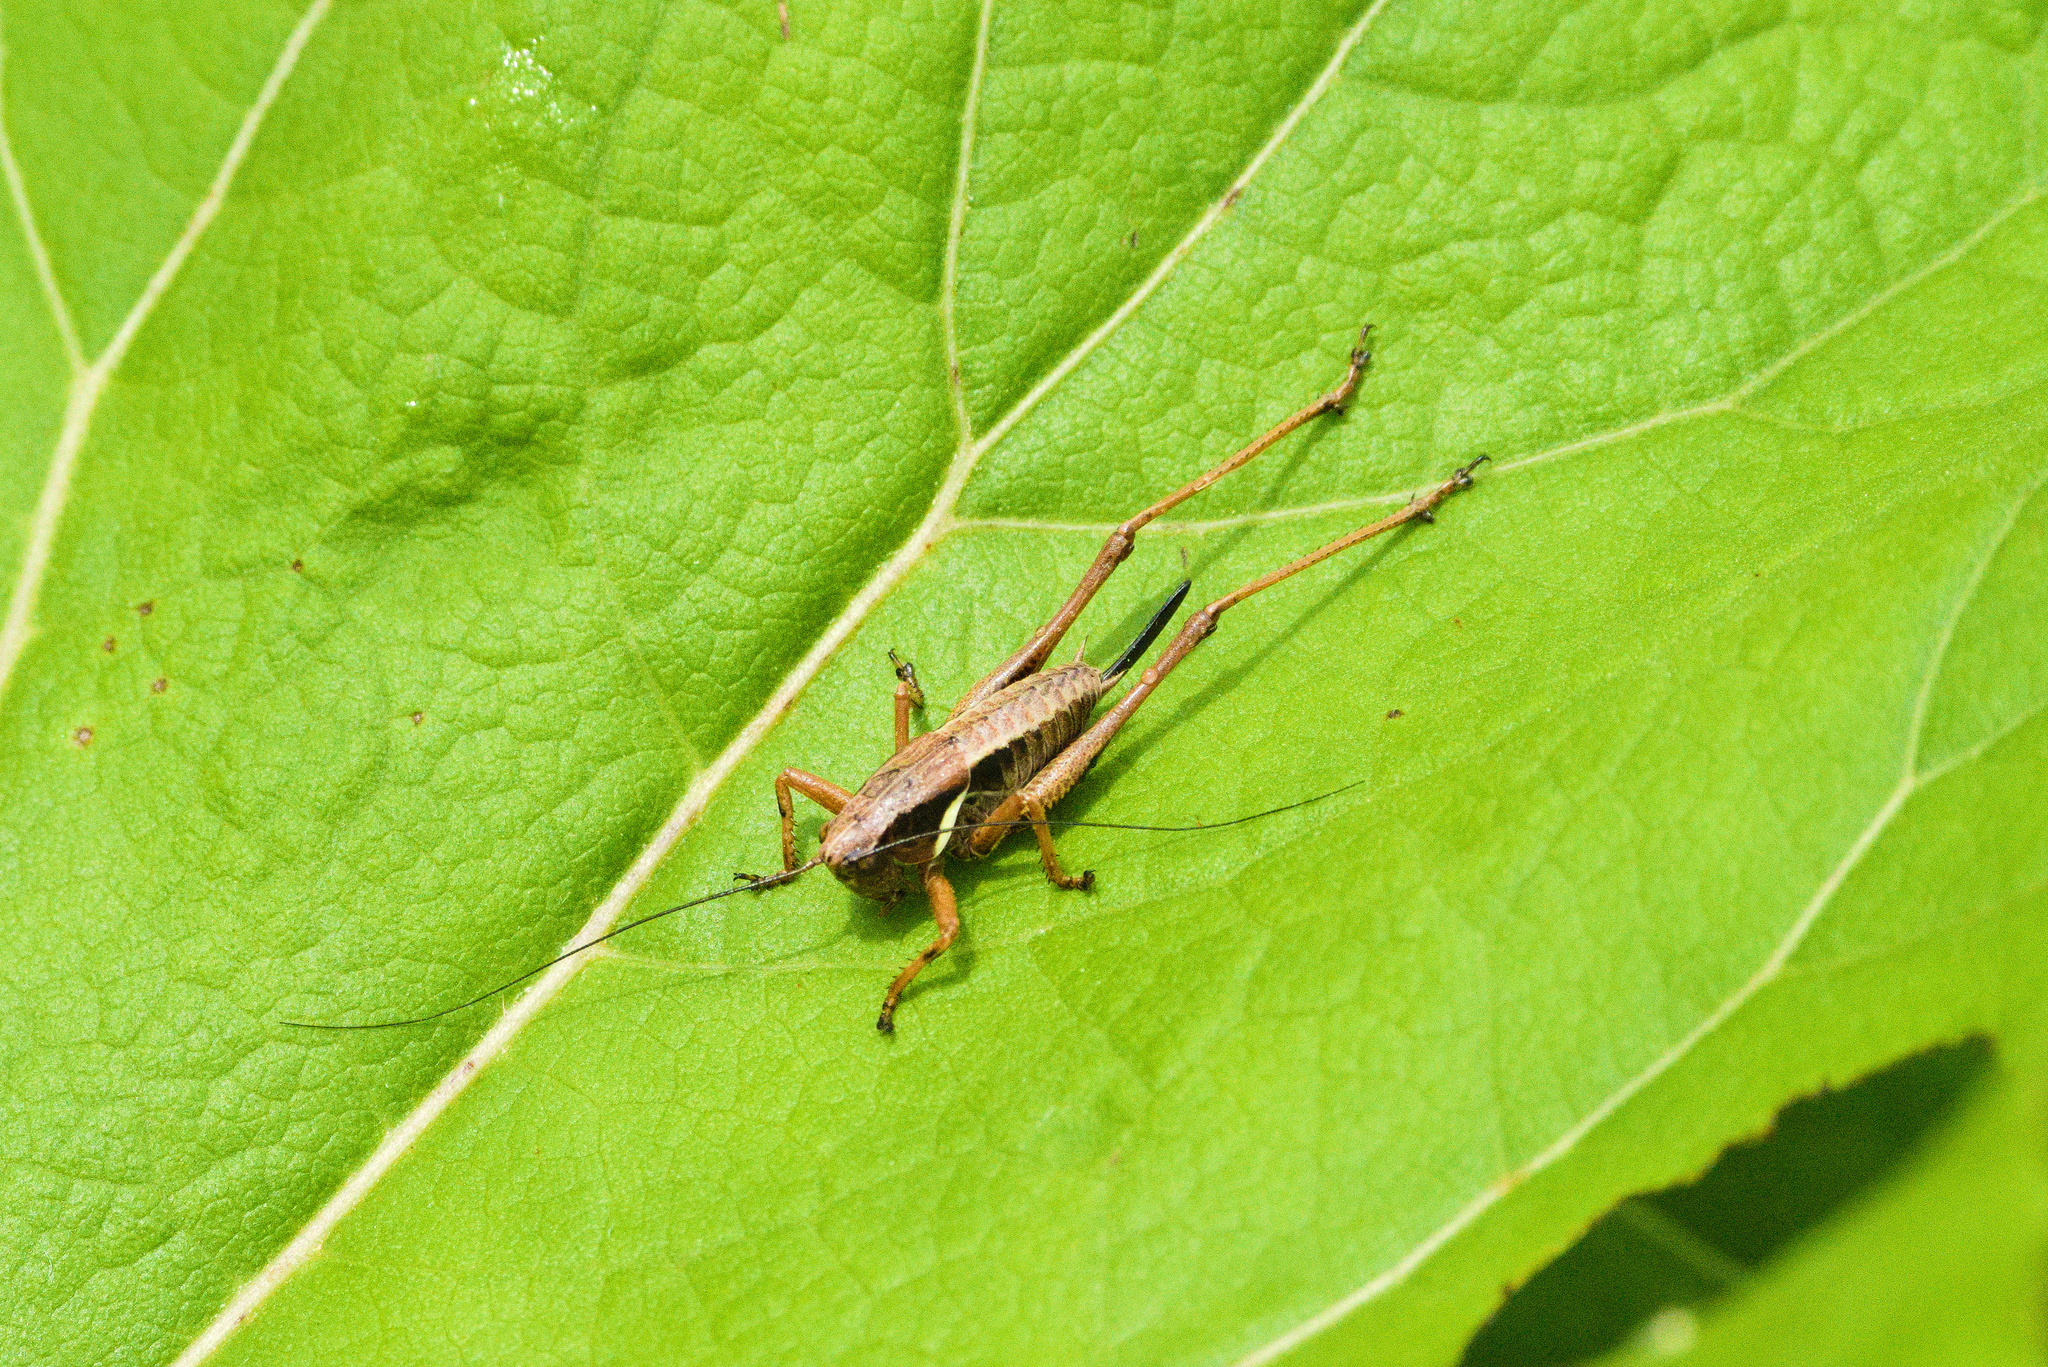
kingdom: Animalia
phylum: Arthropoda
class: Insecta
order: Orthoptera
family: Tettigoniidae
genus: Pholidoptera
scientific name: Pholidoptera aptera
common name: Alpine dark bush-cricket
